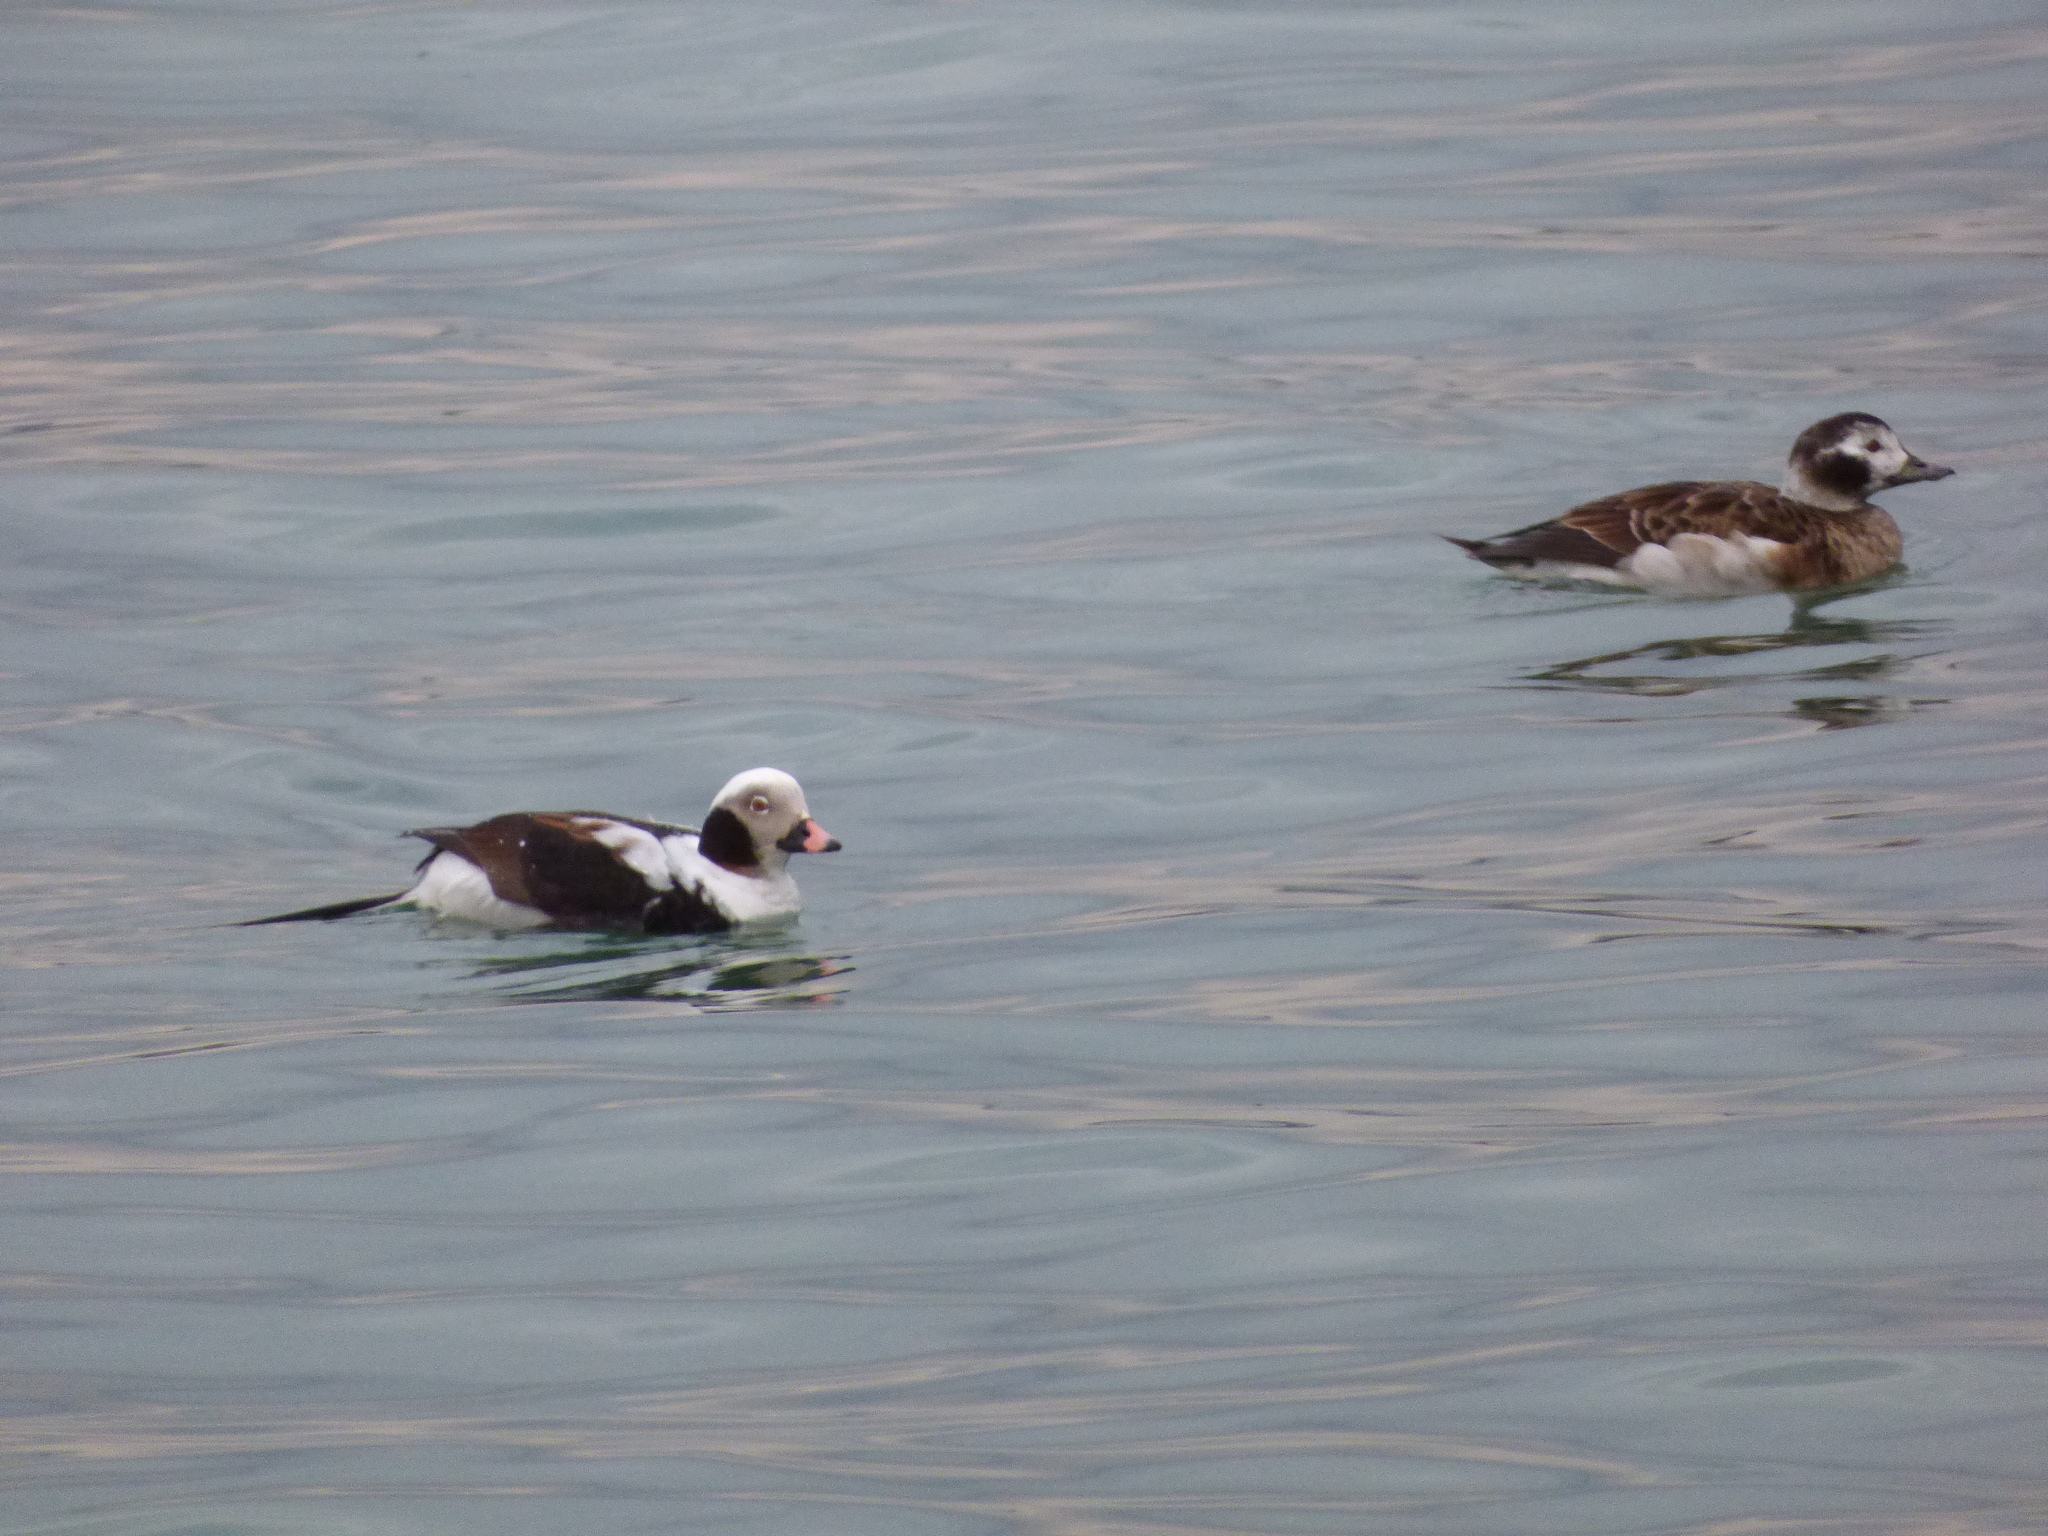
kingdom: Animalia
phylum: Chordata
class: Aves
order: Anseriformes
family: Anatidae
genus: Clangula
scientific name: Clangula hyemalis
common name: Long-tailed duck
